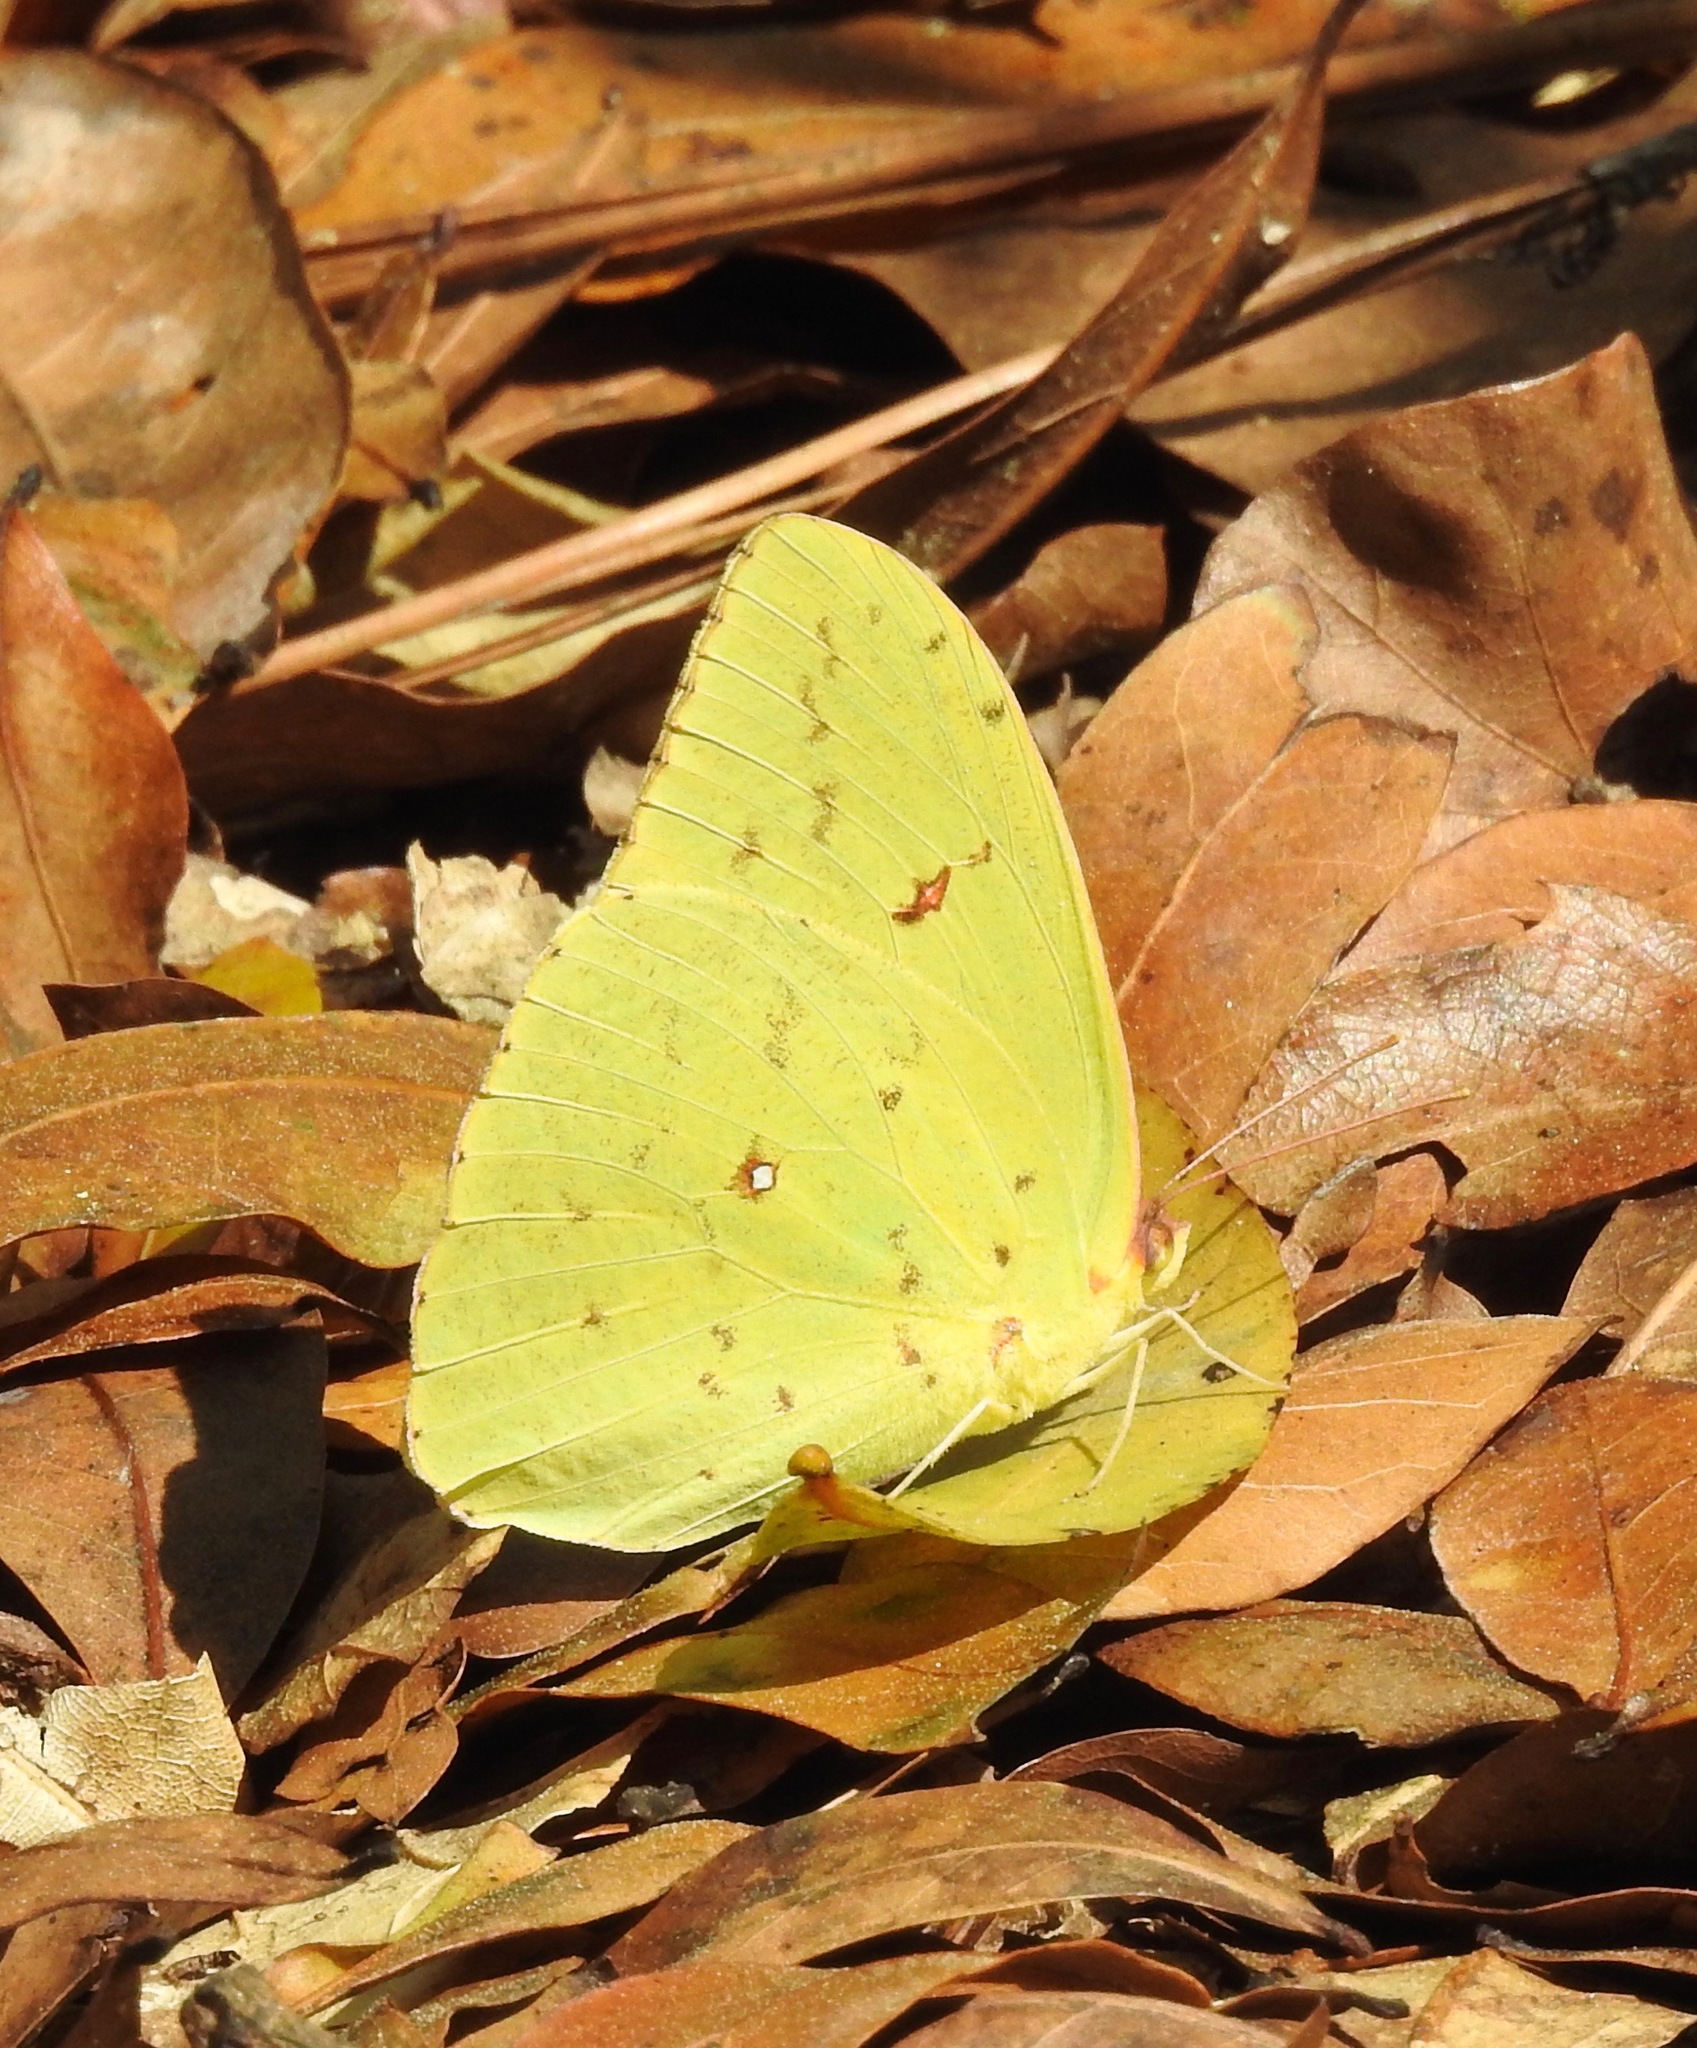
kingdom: Animalia
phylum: Arthropoda
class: Insecta
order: Lepidoptera
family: Pieridae
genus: Phoebis
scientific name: Phoebis sennae
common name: Cloudless sulphur
